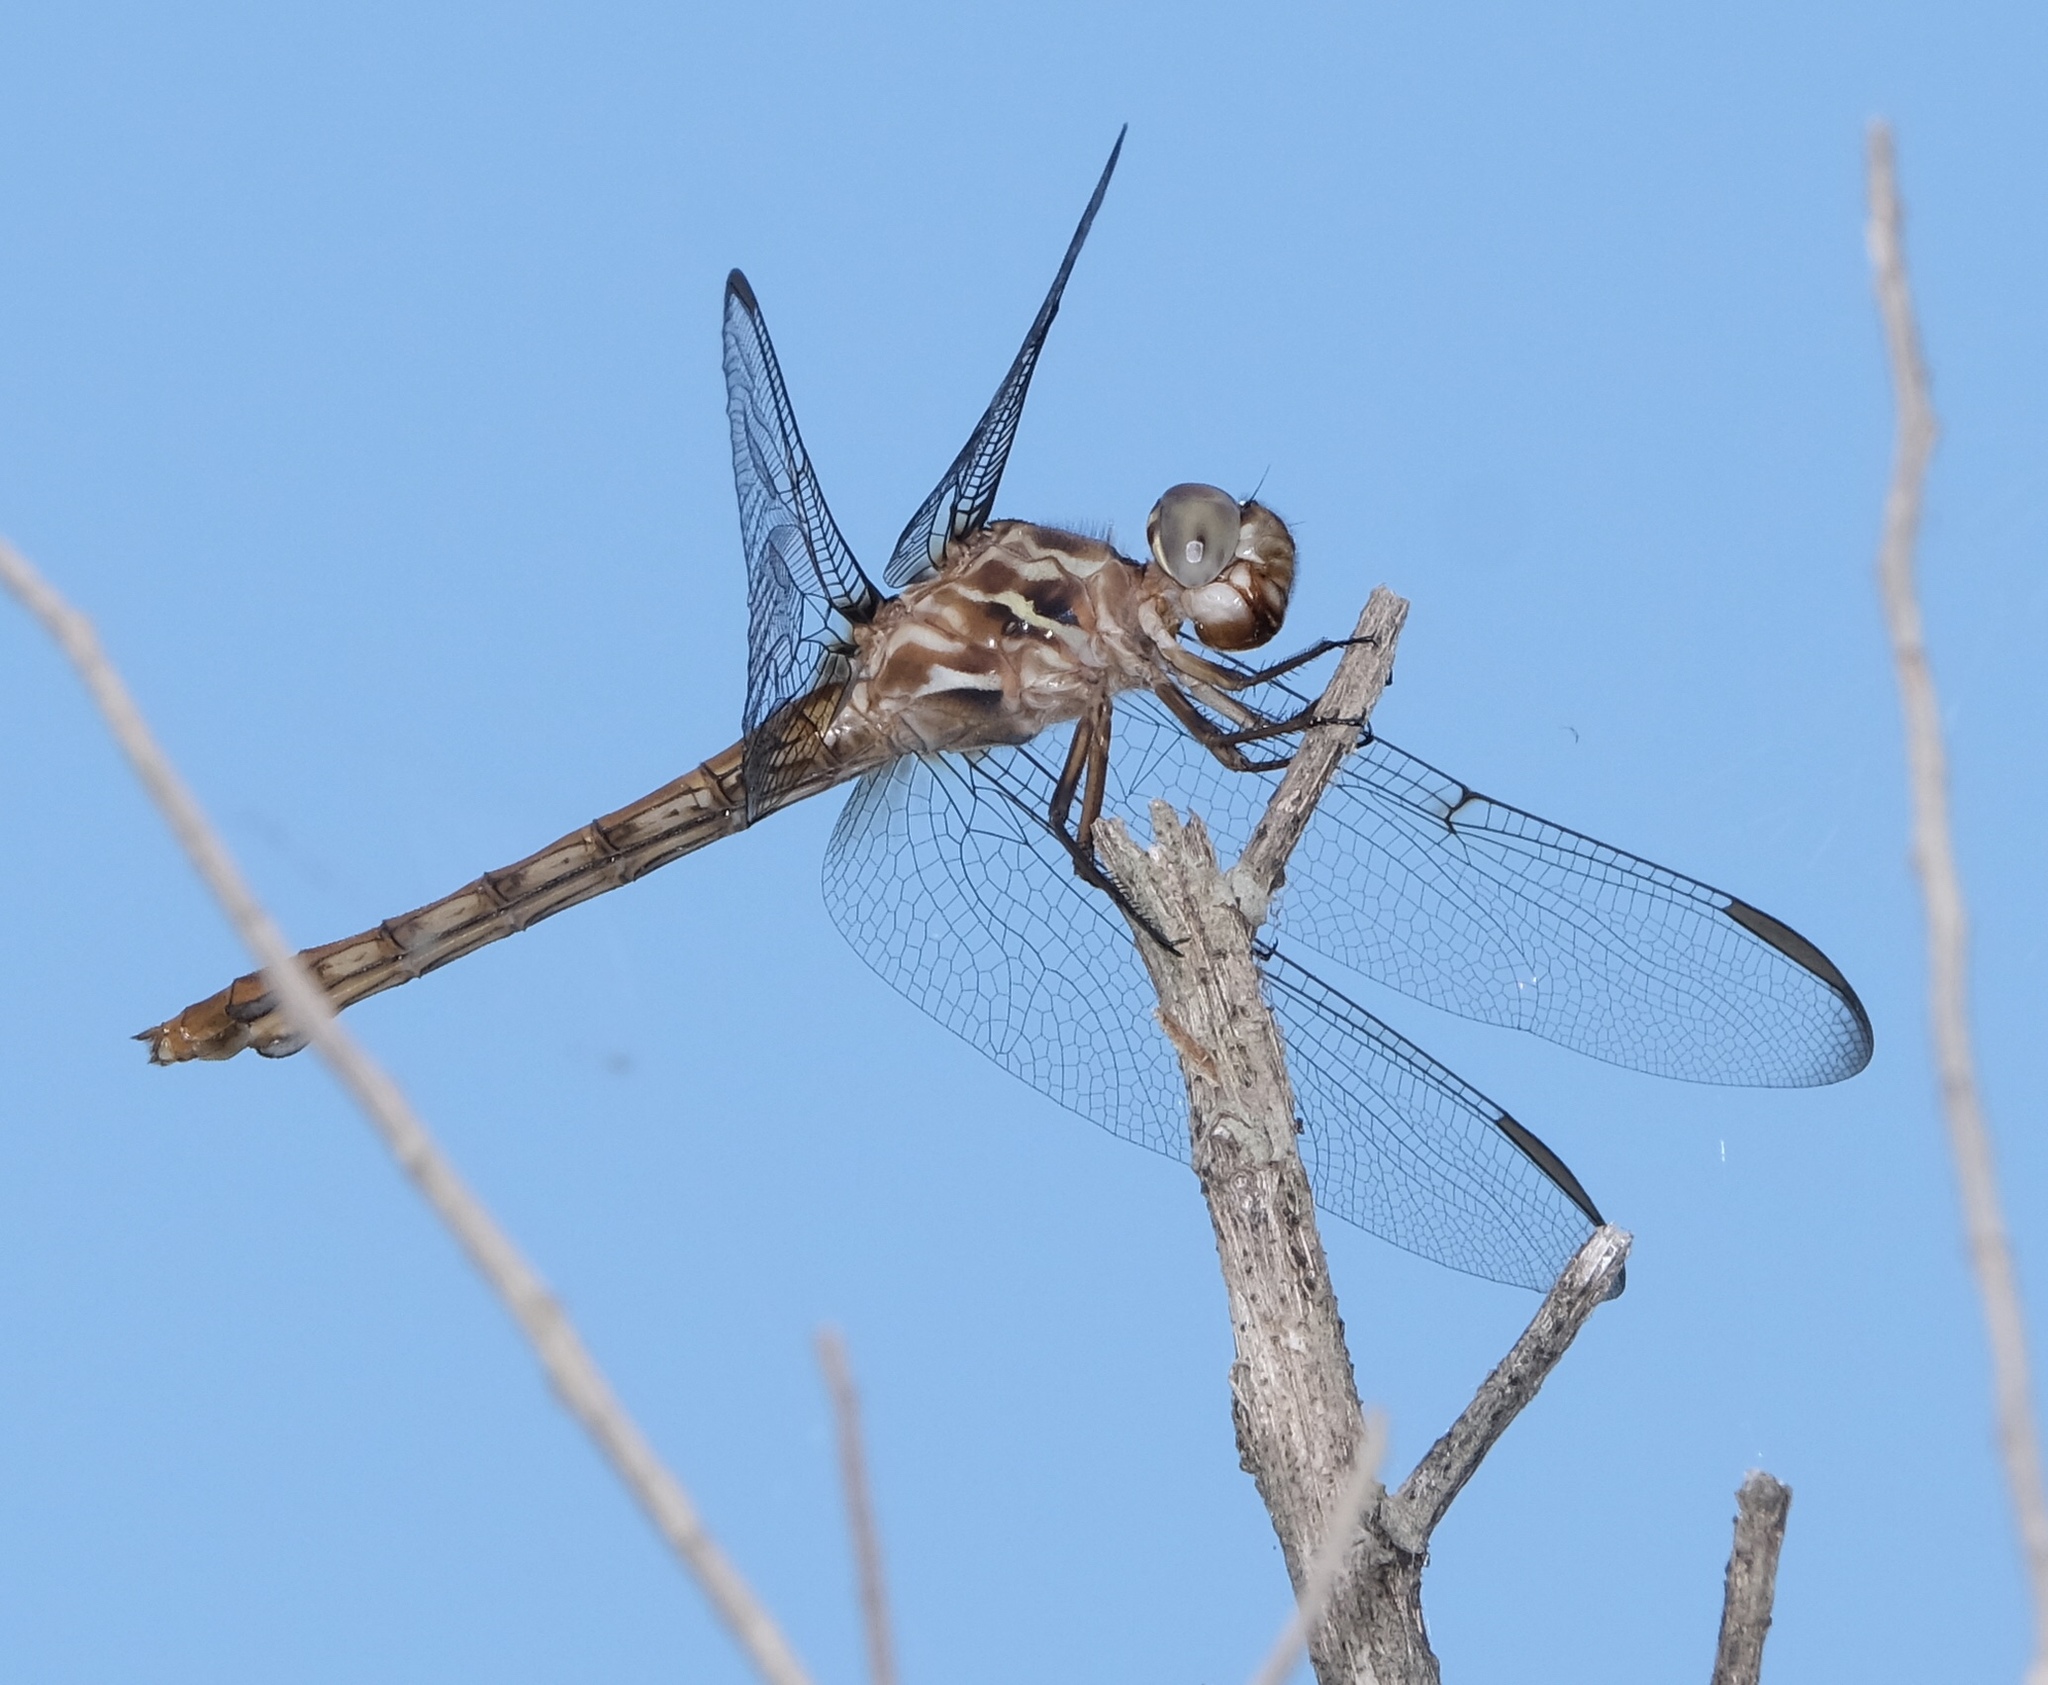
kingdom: Animalia
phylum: Arthropoda
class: Insecta
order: Odonata
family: Libellulidae
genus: Orthemis
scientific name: Orthemis ferruginea
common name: Roseate skimmer
